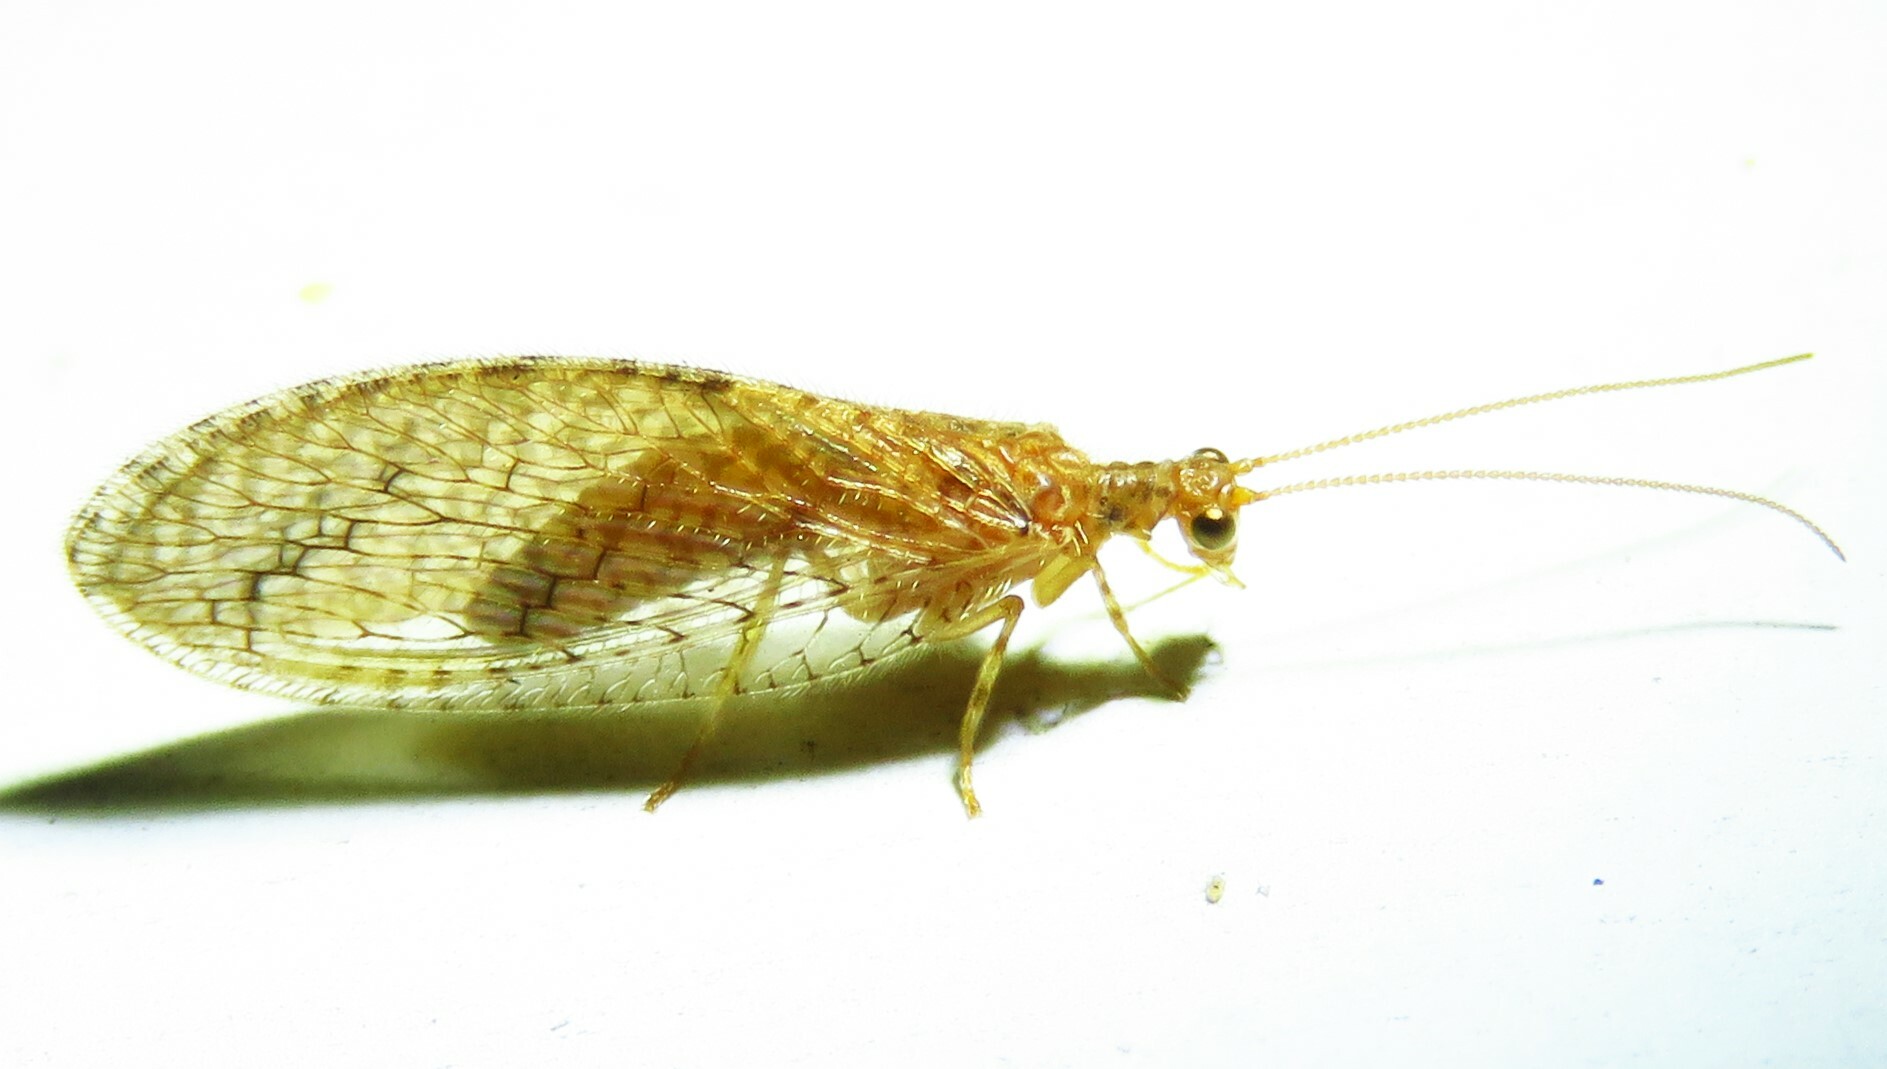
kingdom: Animalia
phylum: Arthropoda
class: Insecta
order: Neuroptera
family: Hemerobiidae
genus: Micromus
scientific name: Micromus posticus
